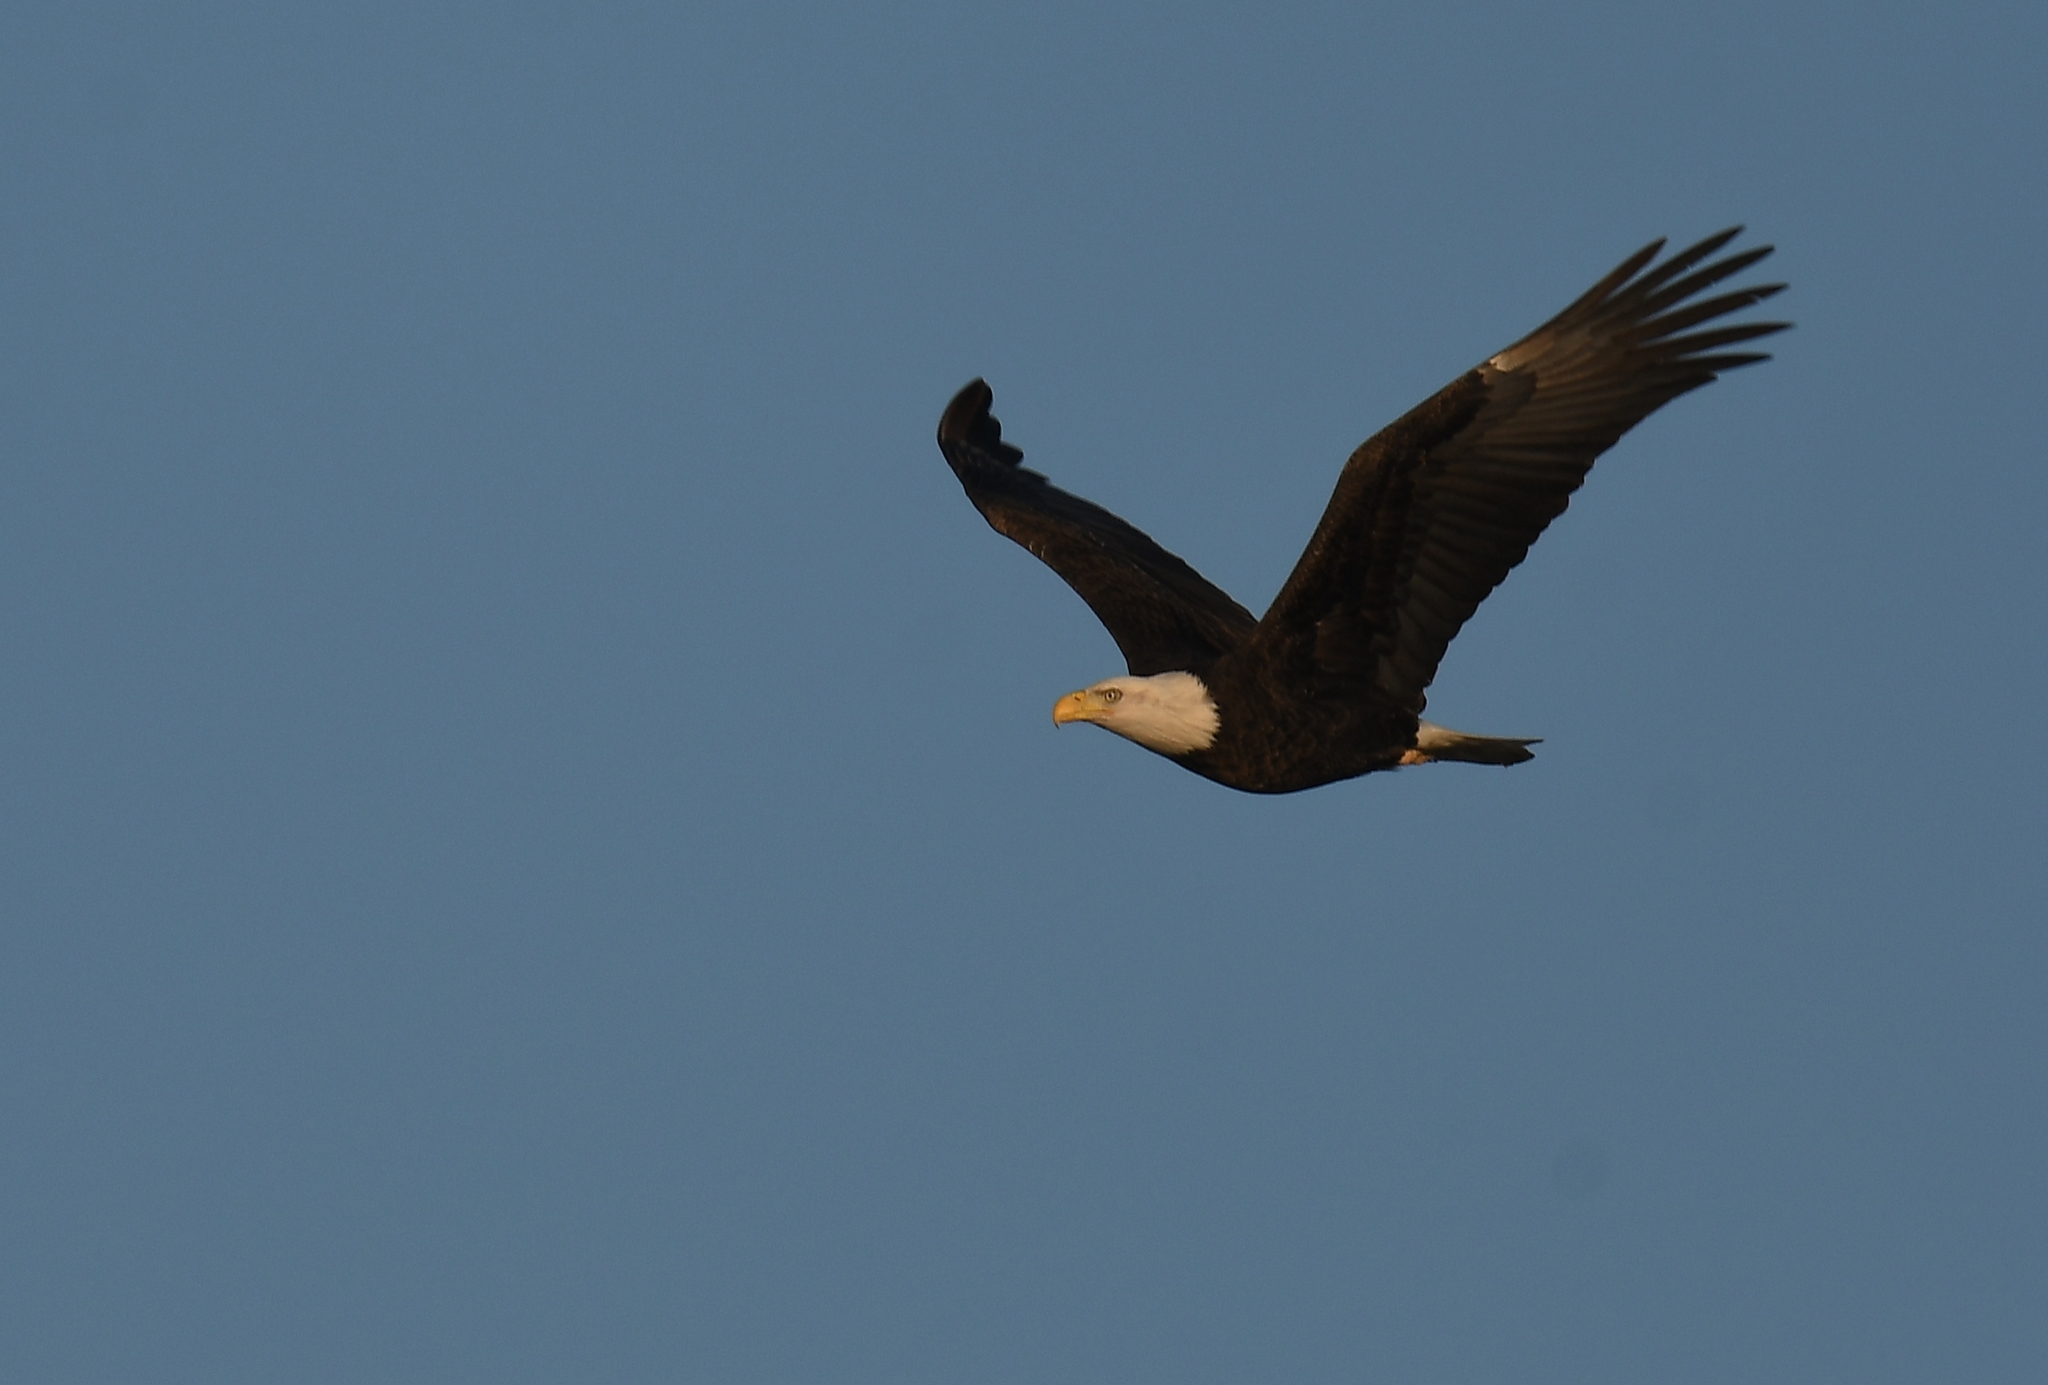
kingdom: Animalia
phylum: Chordata
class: Aves
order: Accipitriformes
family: Accipitridae
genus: Haliaeetus
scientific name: Haliaeetus leucocephalus
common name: Bald eagle
